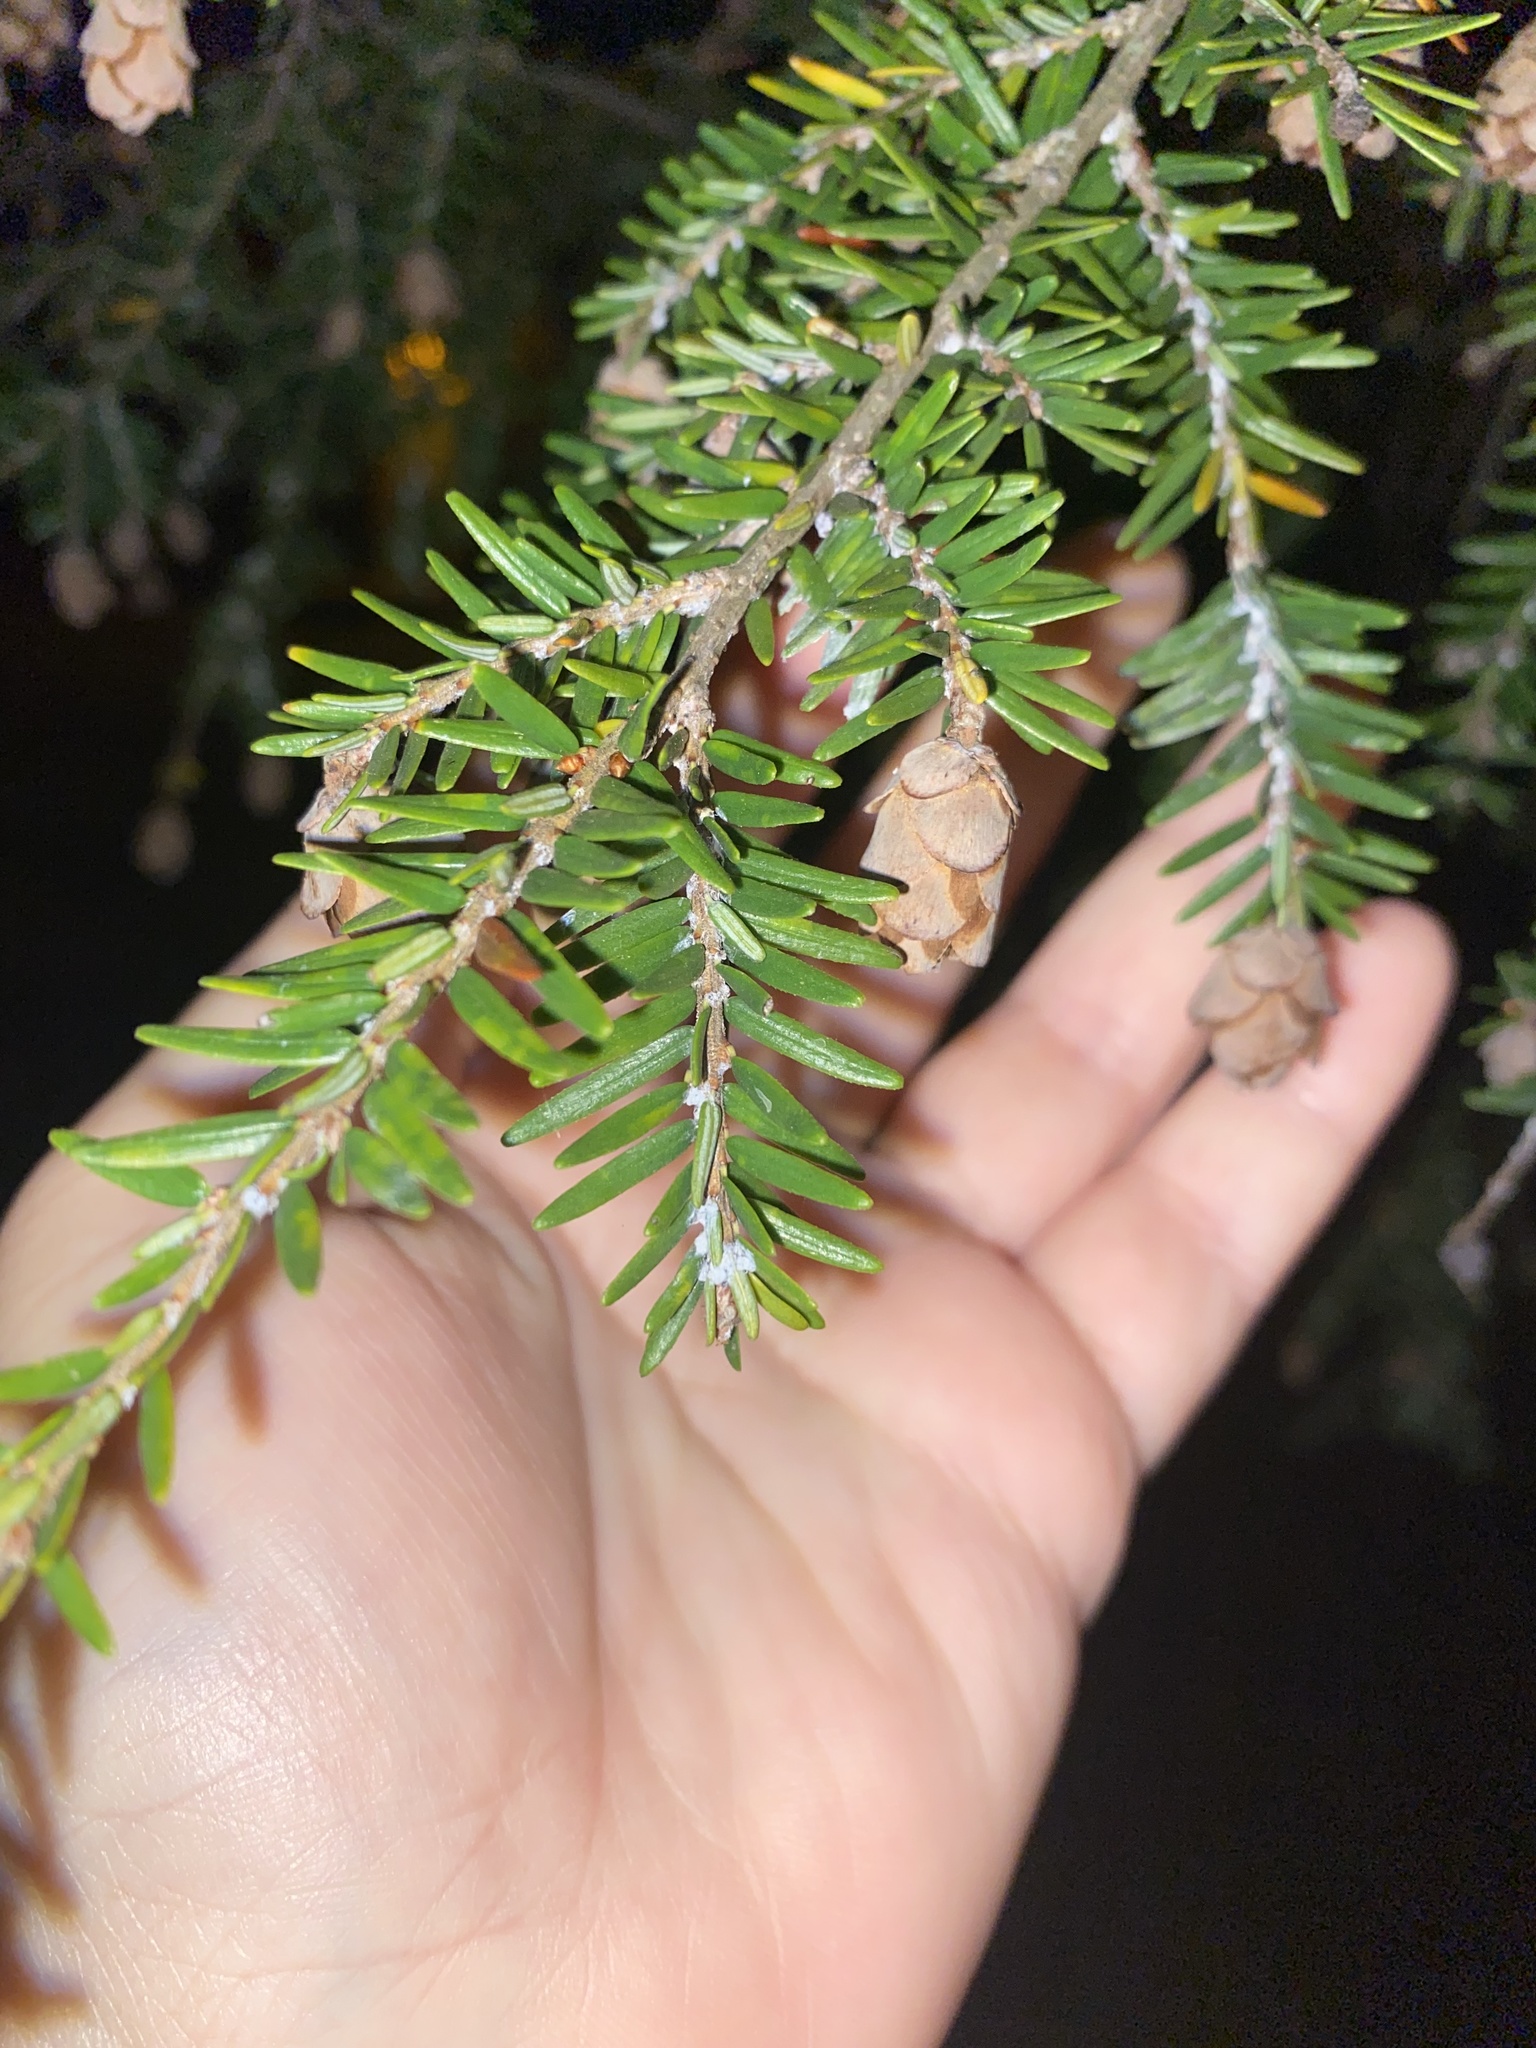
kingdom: Animalia
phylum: Arthropoda
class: Insecta
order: Hemiptera
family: Adelgidae
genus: Adelges
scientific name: Adelges tsugae
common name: Hemlock woolly adelgid
